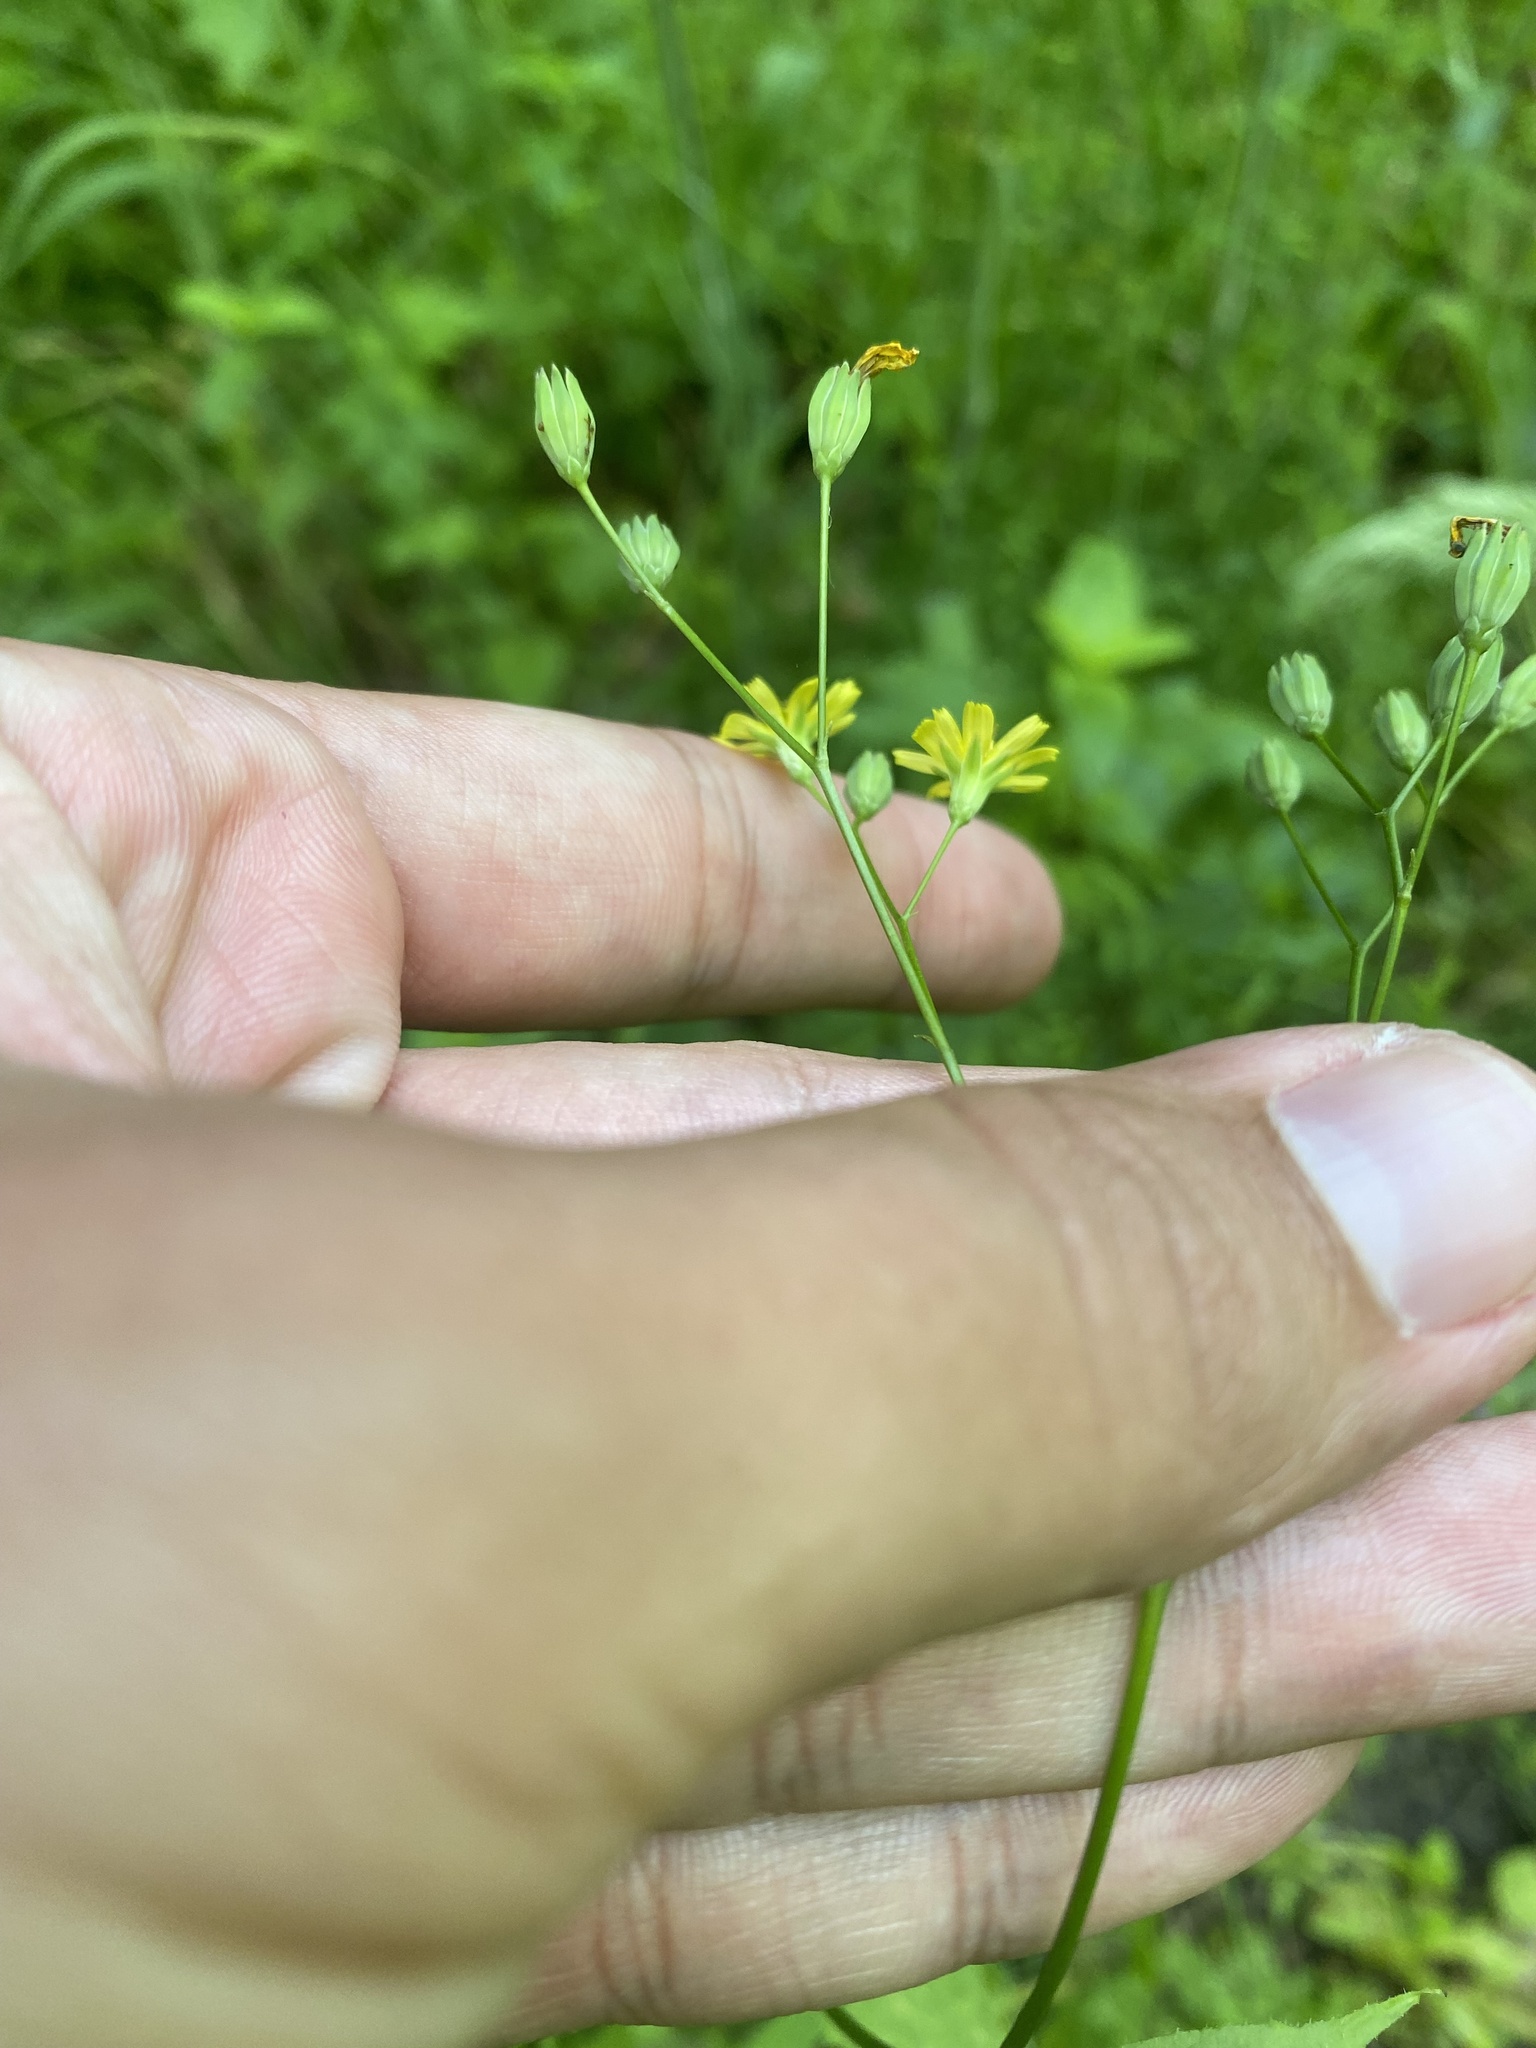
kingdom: Plantae
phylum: Tracheophyta
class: Magnoliopsida
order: Asterales
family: Asteraceae
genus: Lapsana
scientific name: Lapsana communis
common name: Nipplewort
